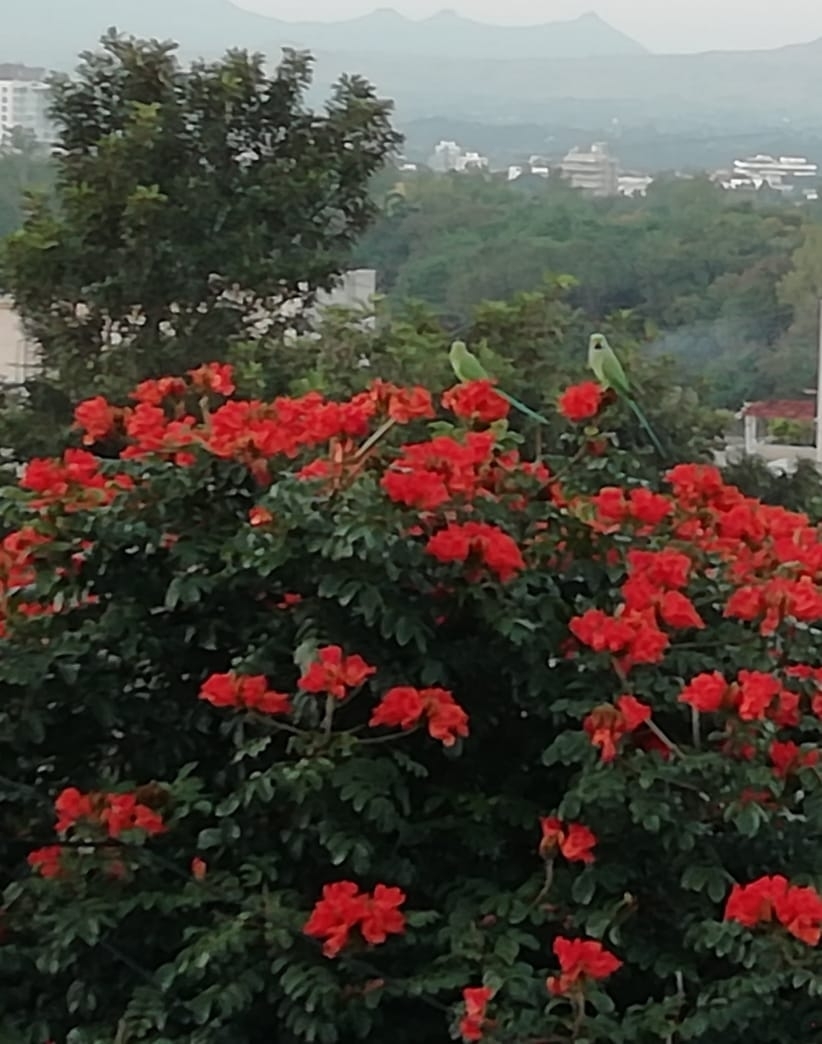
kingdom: Animalia
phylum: Chordata
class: Aves
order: Psittaciformes
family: Psittacidae
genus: Psittacula
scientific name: Psittacula krameri
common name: Rose-ringed parakeet
